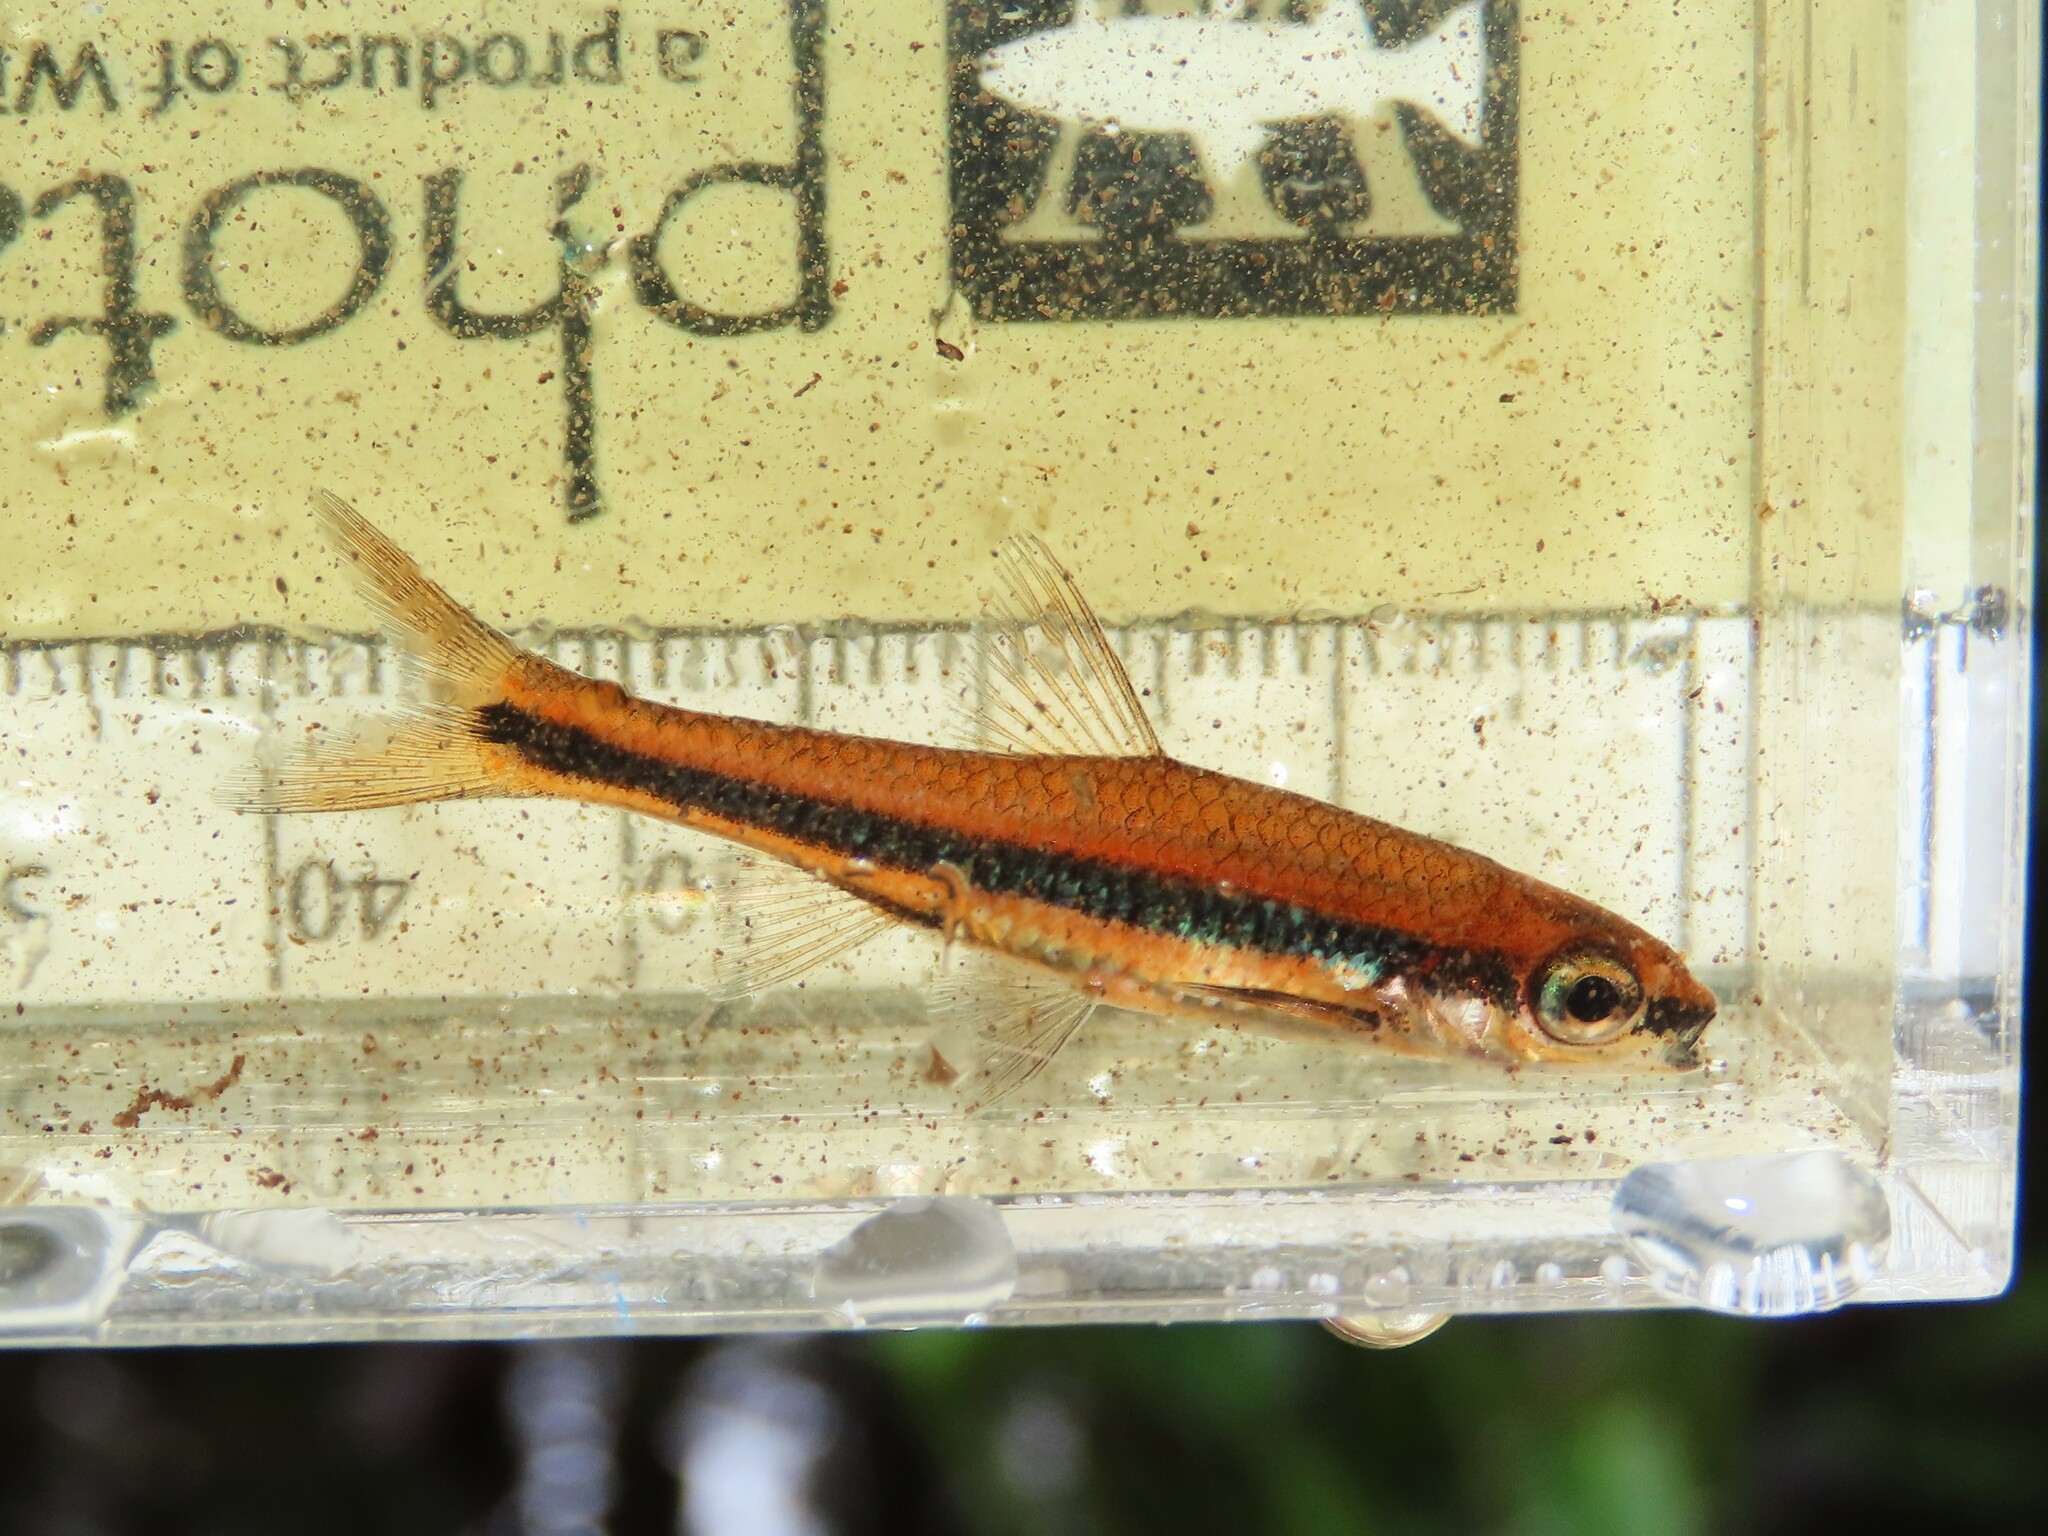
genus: Alburnops
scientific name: Alburnops
